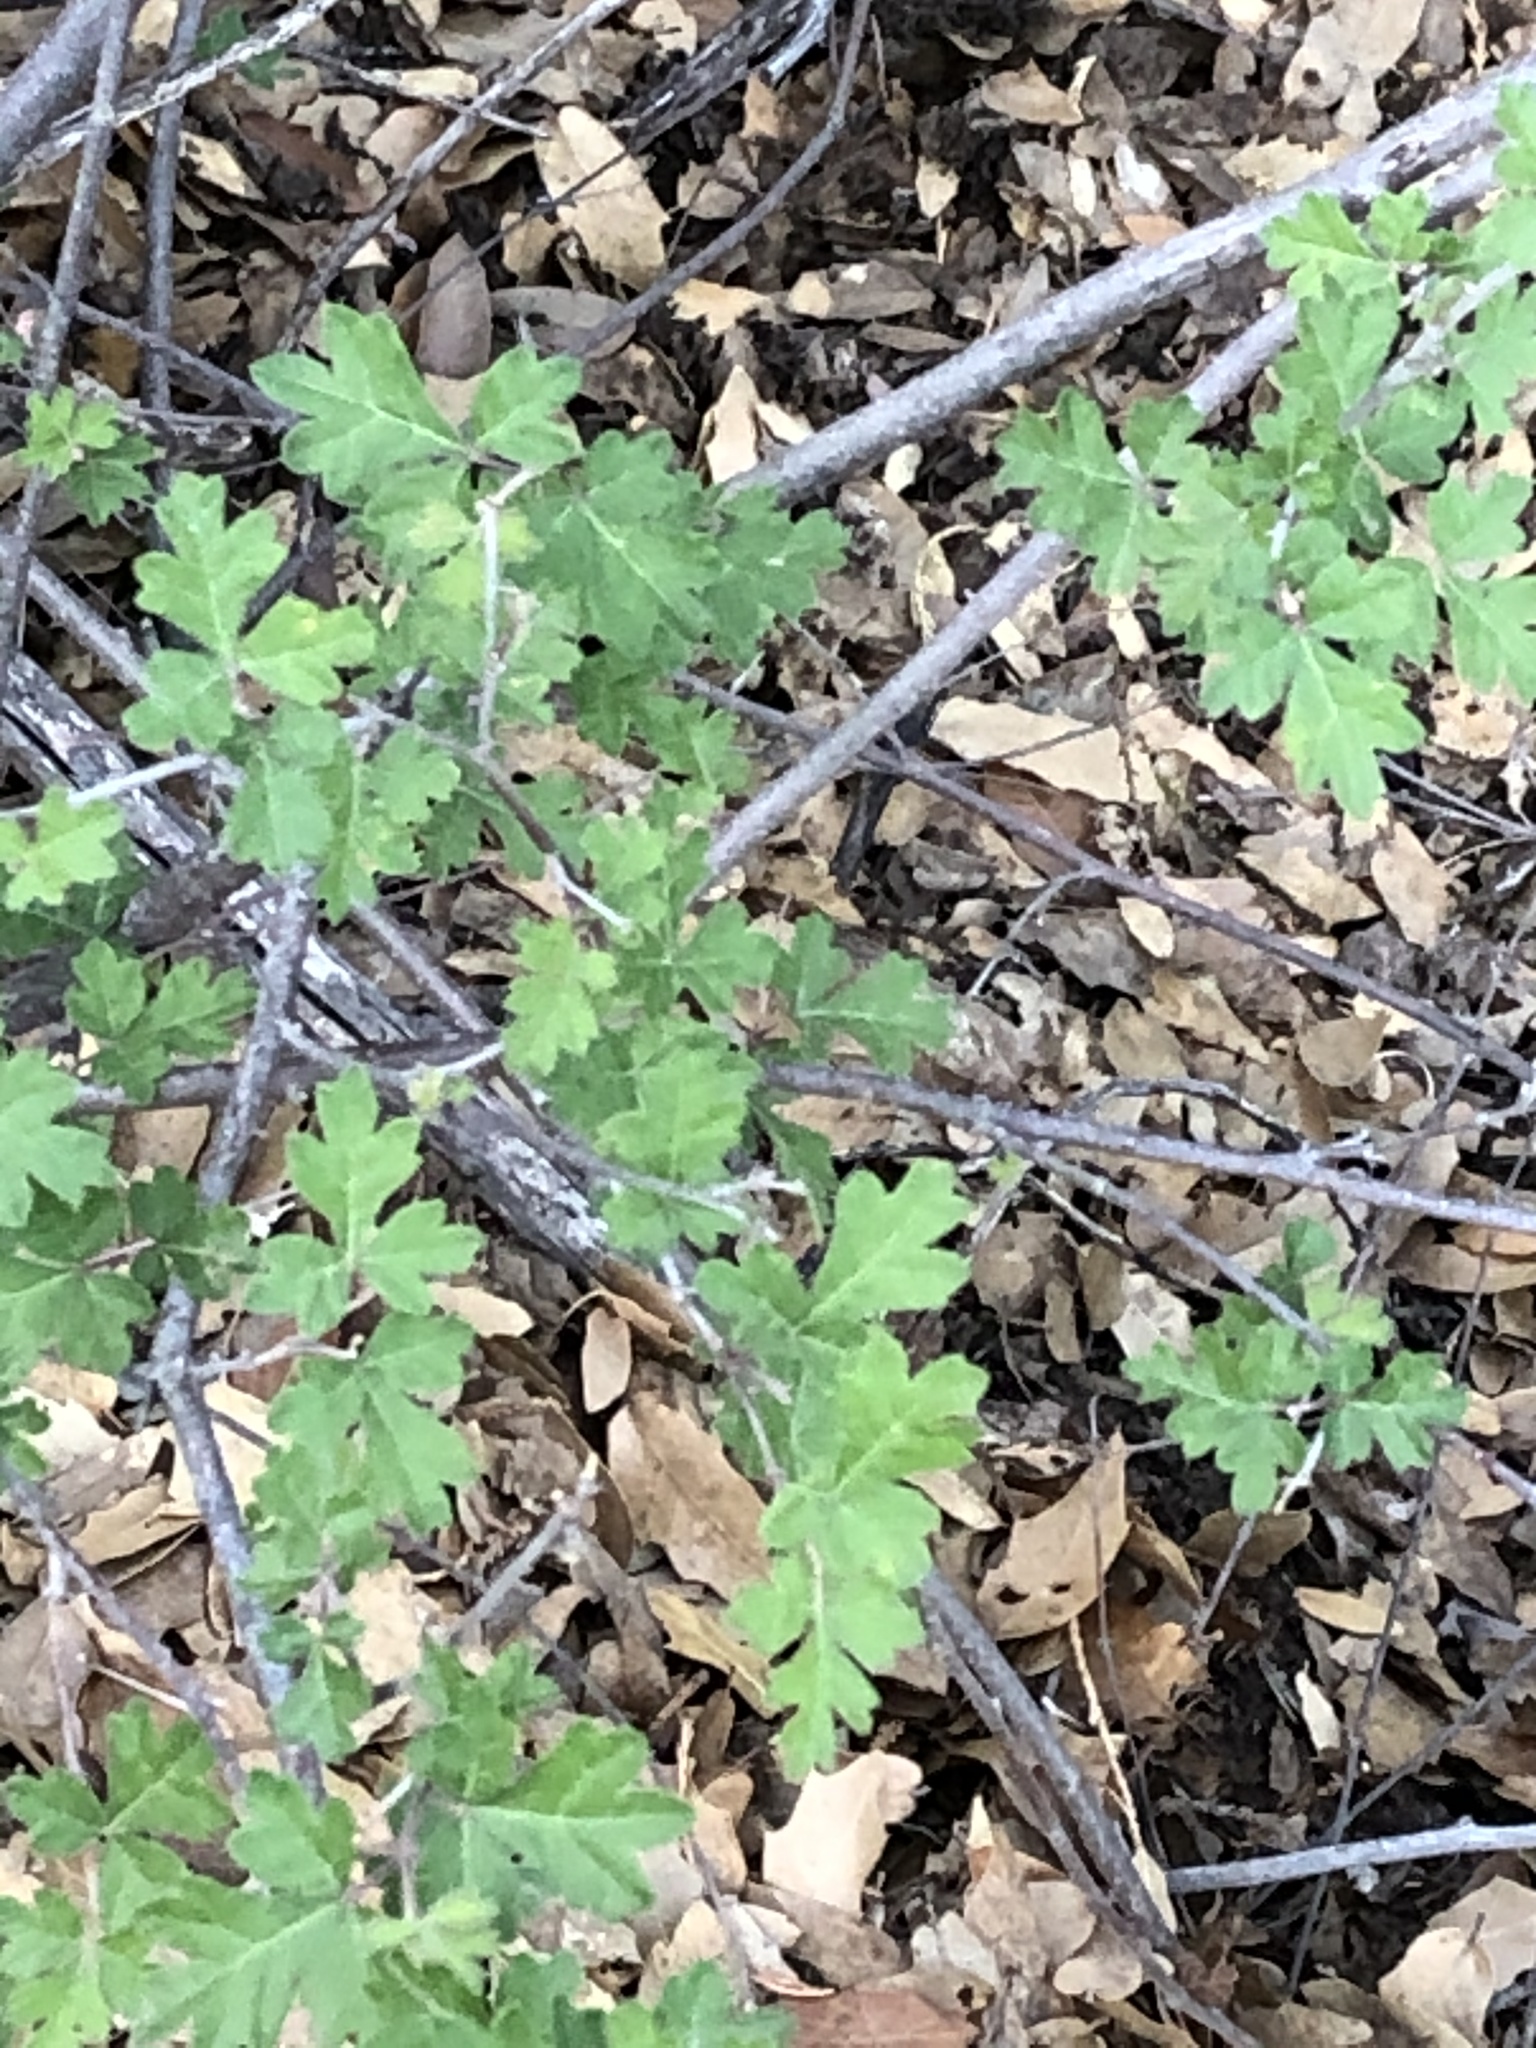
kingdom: Plantae
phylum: Tracheophyta
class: Magnoliopsida
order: Sapindales
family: Anacardiaceae
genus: Rhus
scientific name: Rhus aromatica
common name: Aromatic sumac
